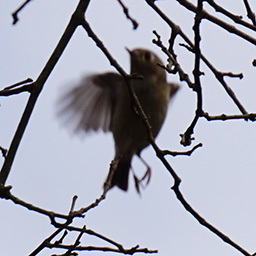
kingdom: Animalia
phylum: Chordata
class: Aves
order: Passeriformes
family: Regulidae
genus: Regulus
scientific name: Regulus calendula
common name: Ruby-crowned kinglet
